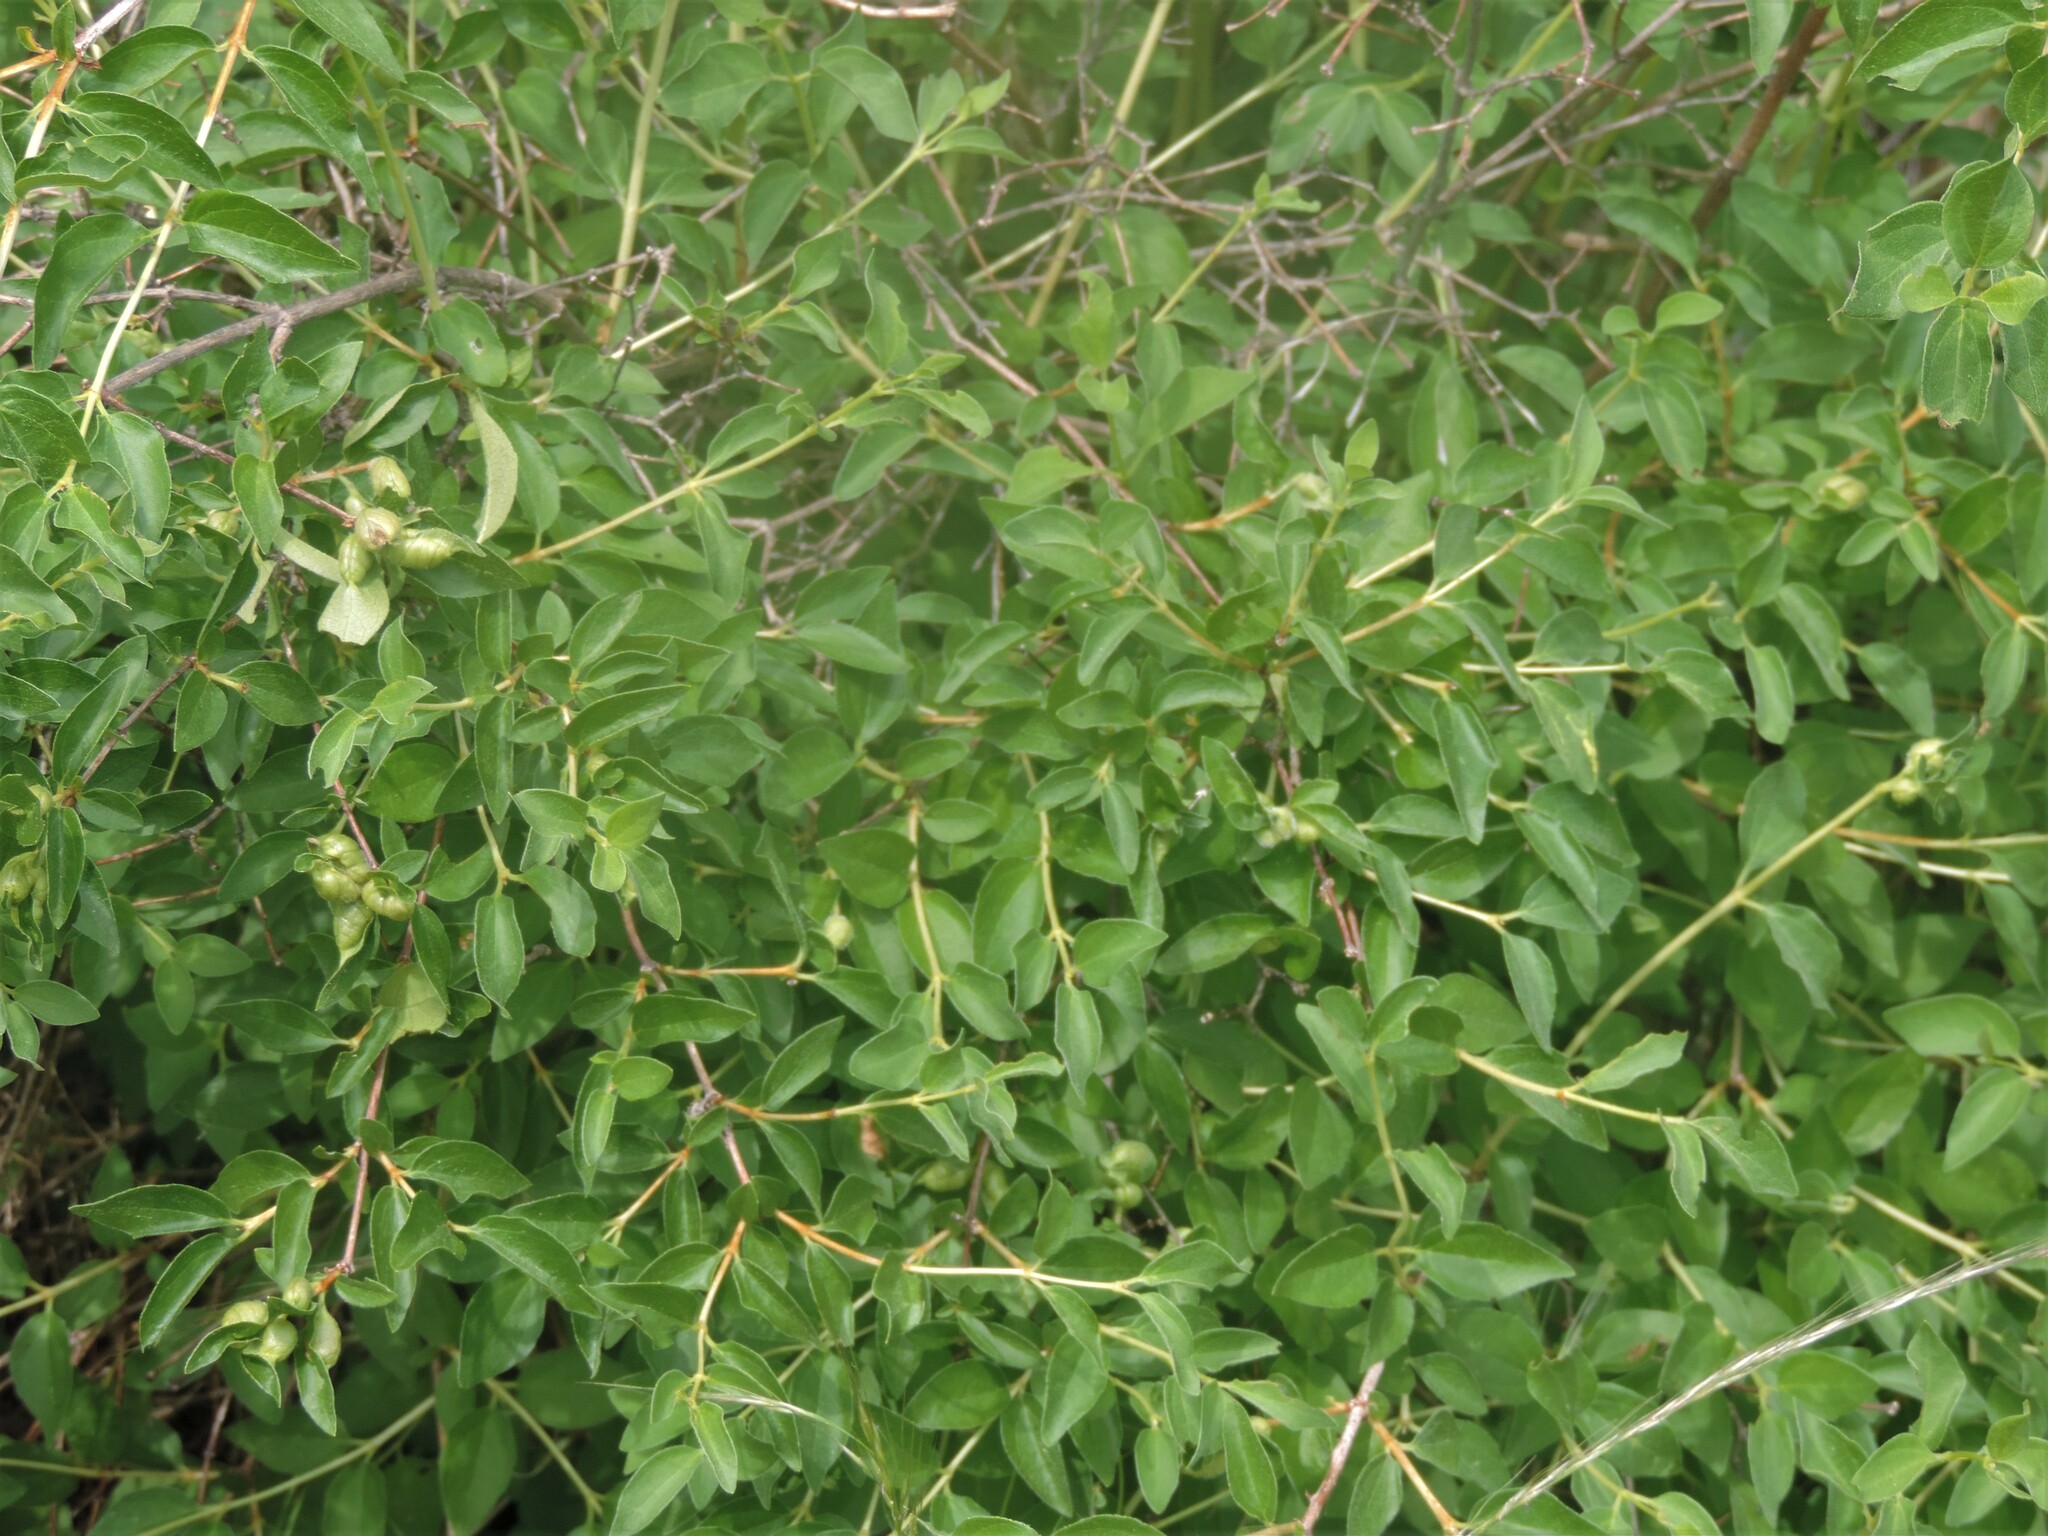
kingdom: Plantae
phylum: Tracheophyta
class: Magnoliopsida
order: Cornales
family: Hydrangeaceae
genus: Philadelphus
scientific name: Philadelphus lewisii
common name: Lewis's mock orange
